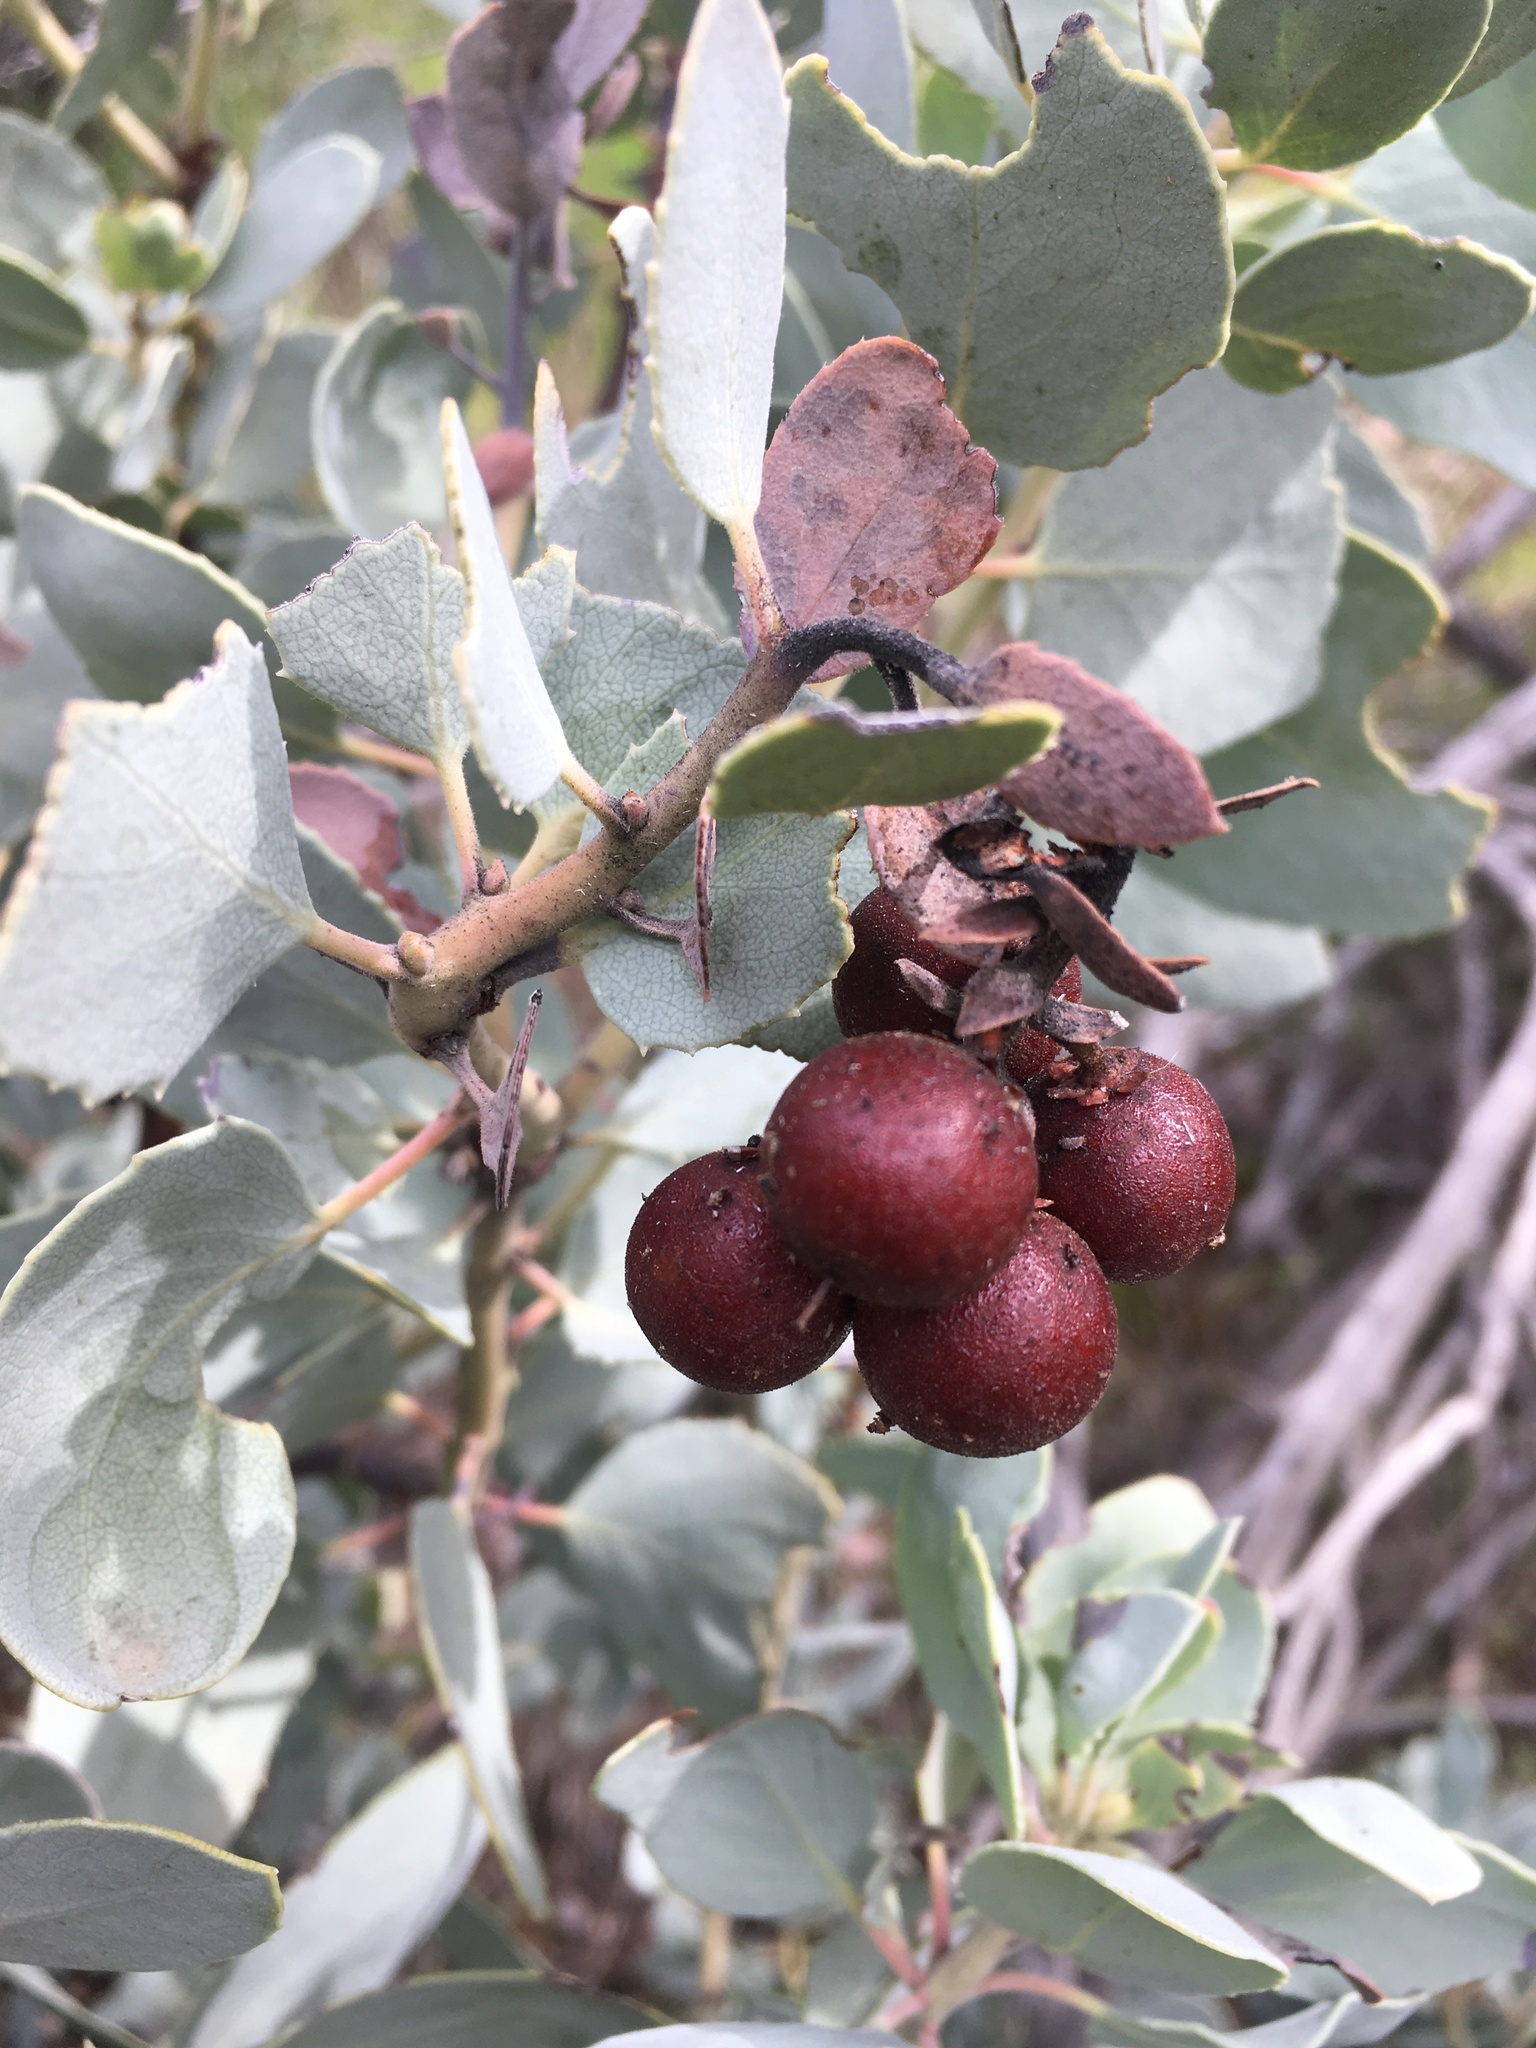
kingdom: Plantae
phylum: Tracheophyta
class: Magnoliopsida
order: Ericales
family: Ericaceae
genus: Arctostaphylos
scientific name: Arctostaphylos glauca
